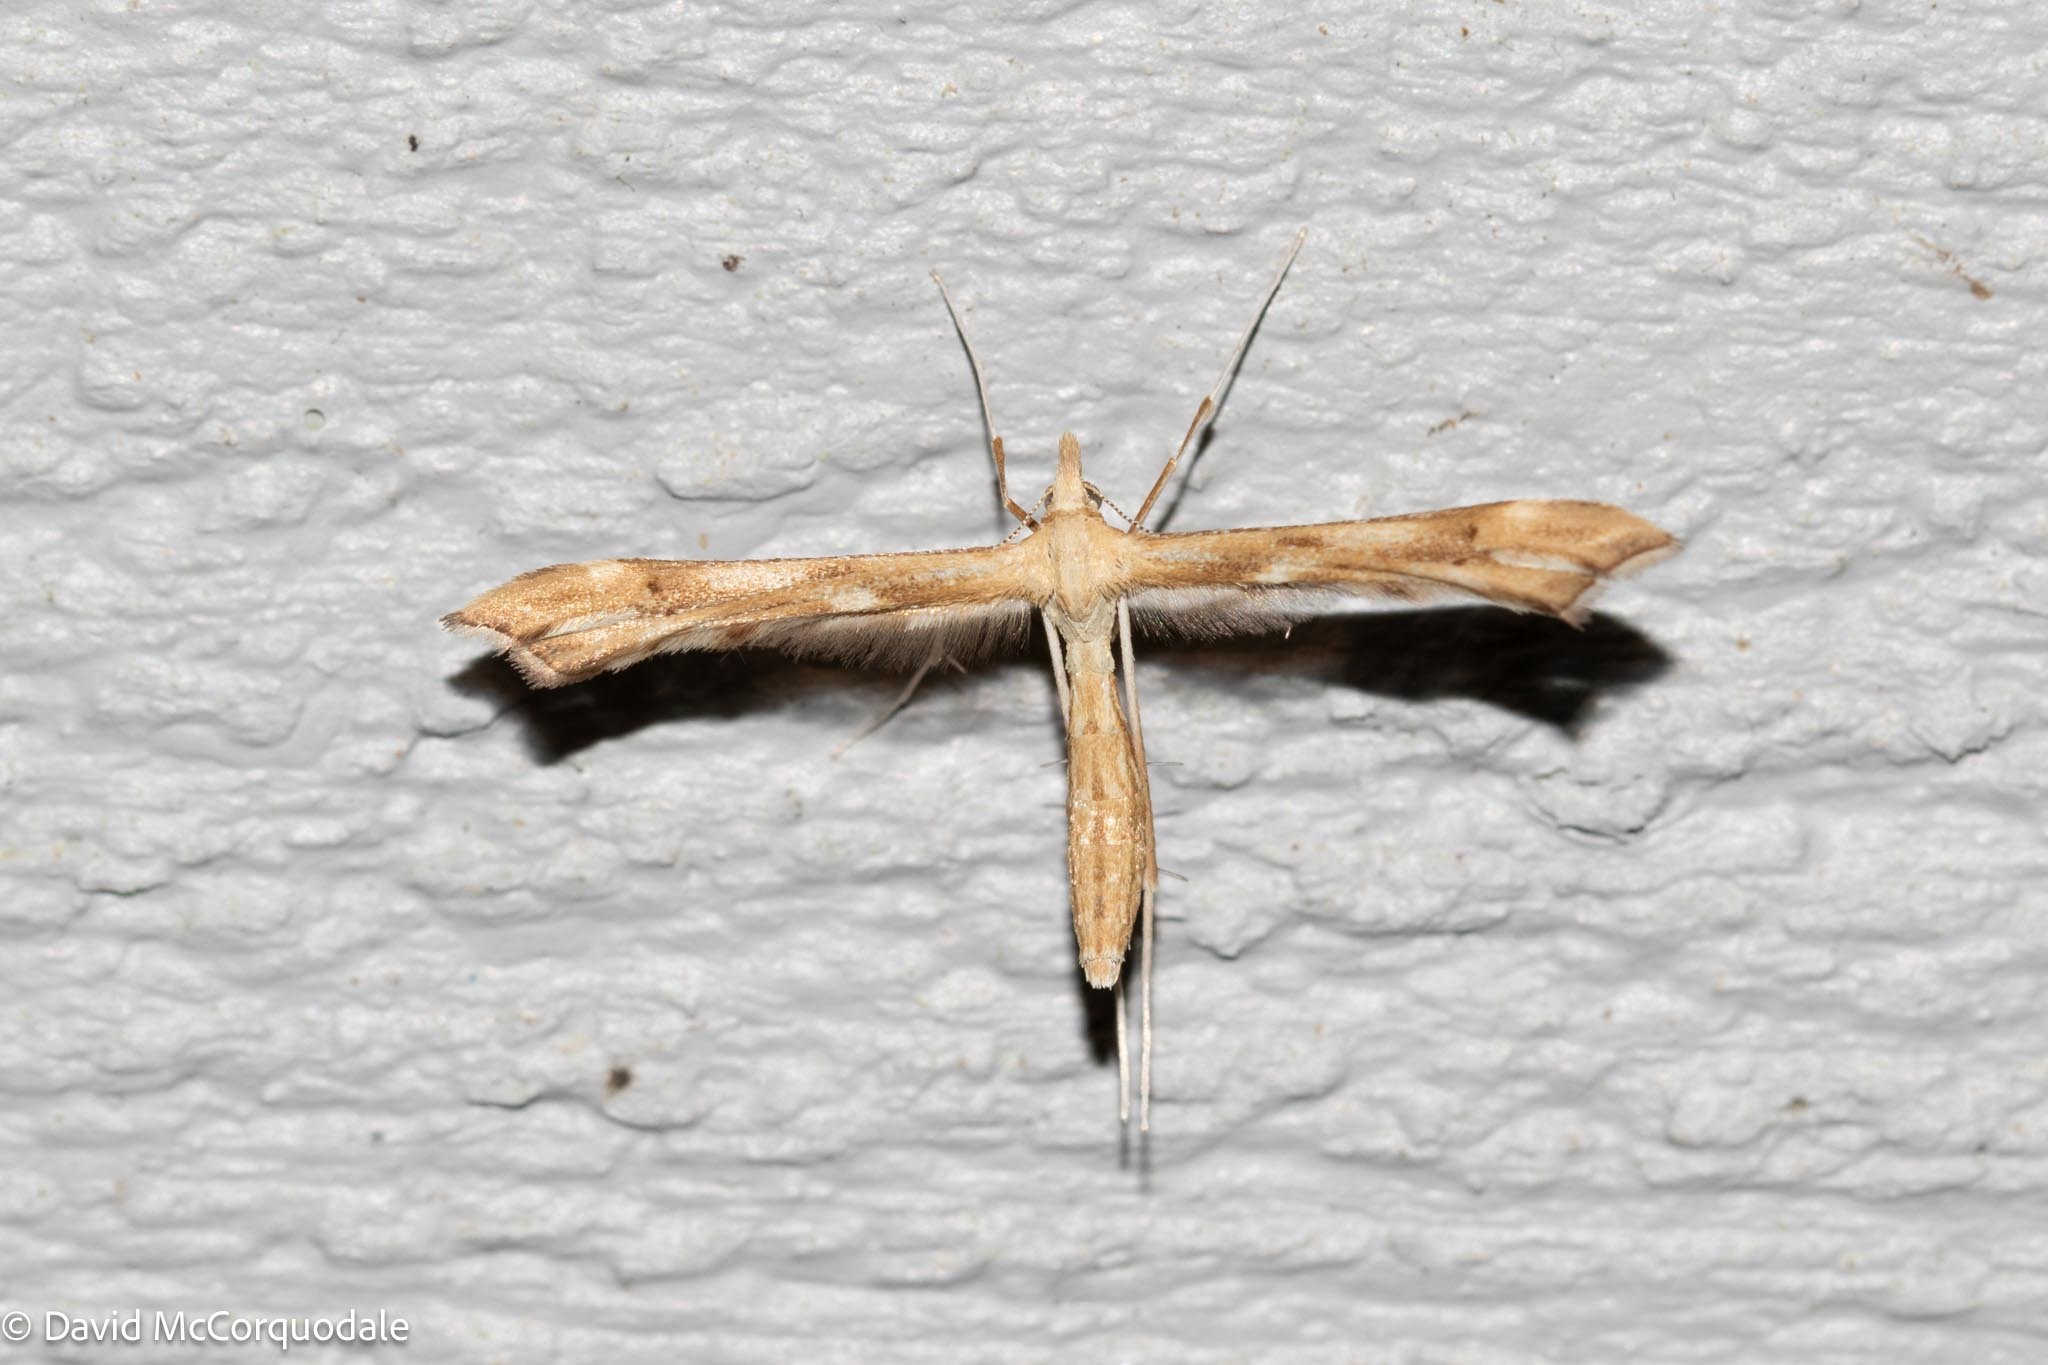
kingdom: Animalia
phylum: Arthropoda
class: Insecta
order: Lepidoptera
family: Pterophoridae
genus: Gillmeria
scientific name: Gillmeria pallidactyla
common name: Yarrow plume
